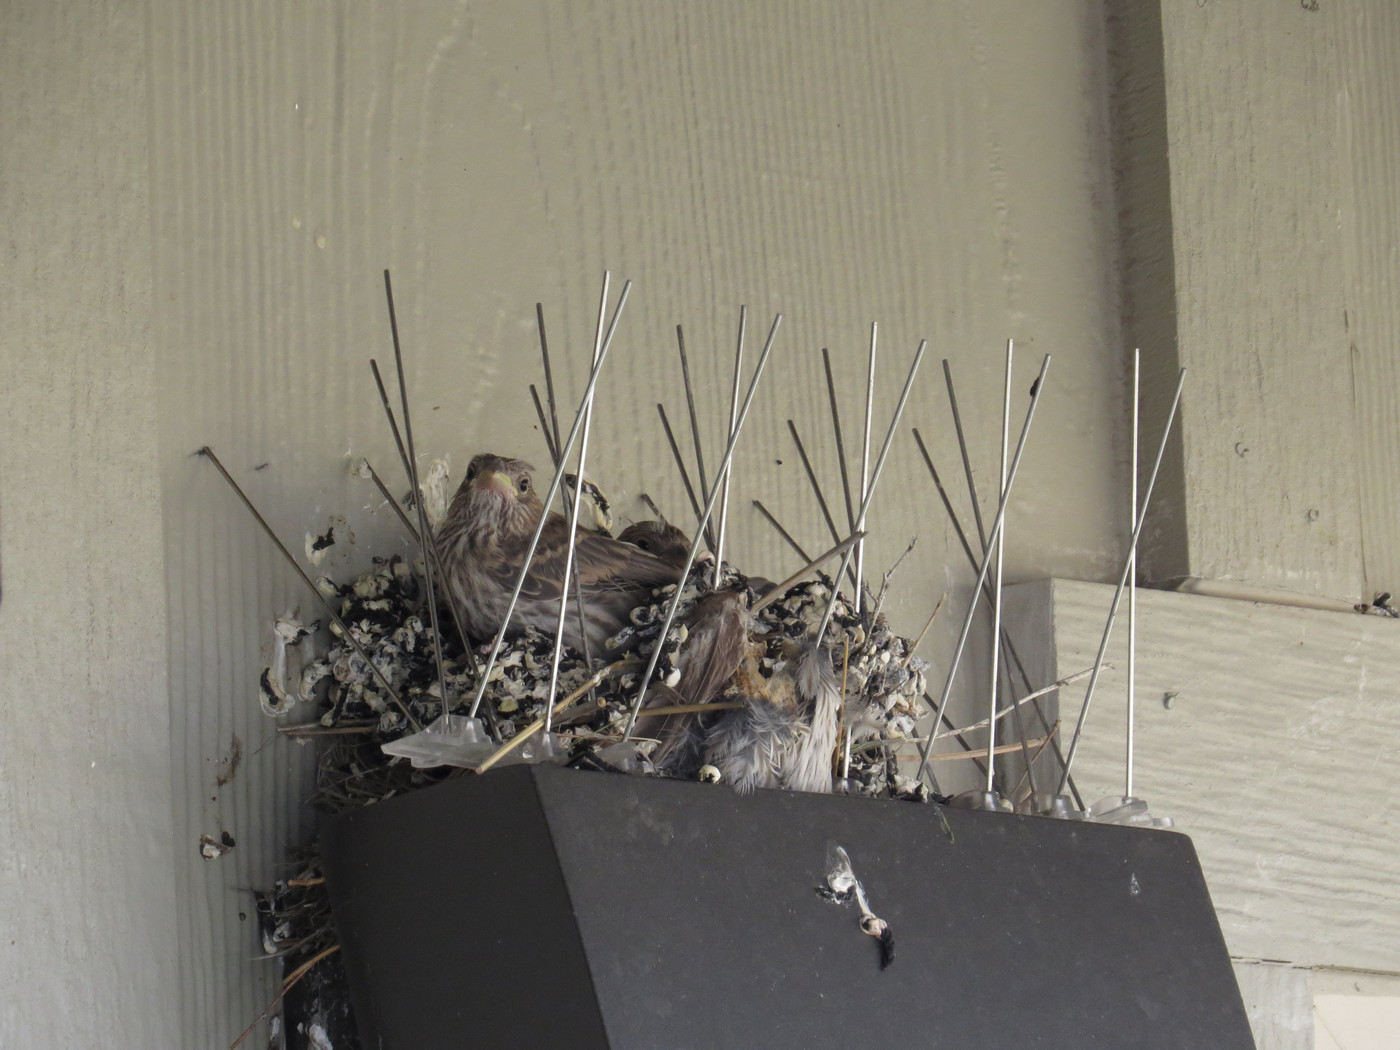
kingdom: Animalia
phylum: Chordata
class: Aves
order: Passeriformes
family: Fringillidae
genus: Haemorhous
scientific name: Haemorhous mexicanus
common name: House finch
